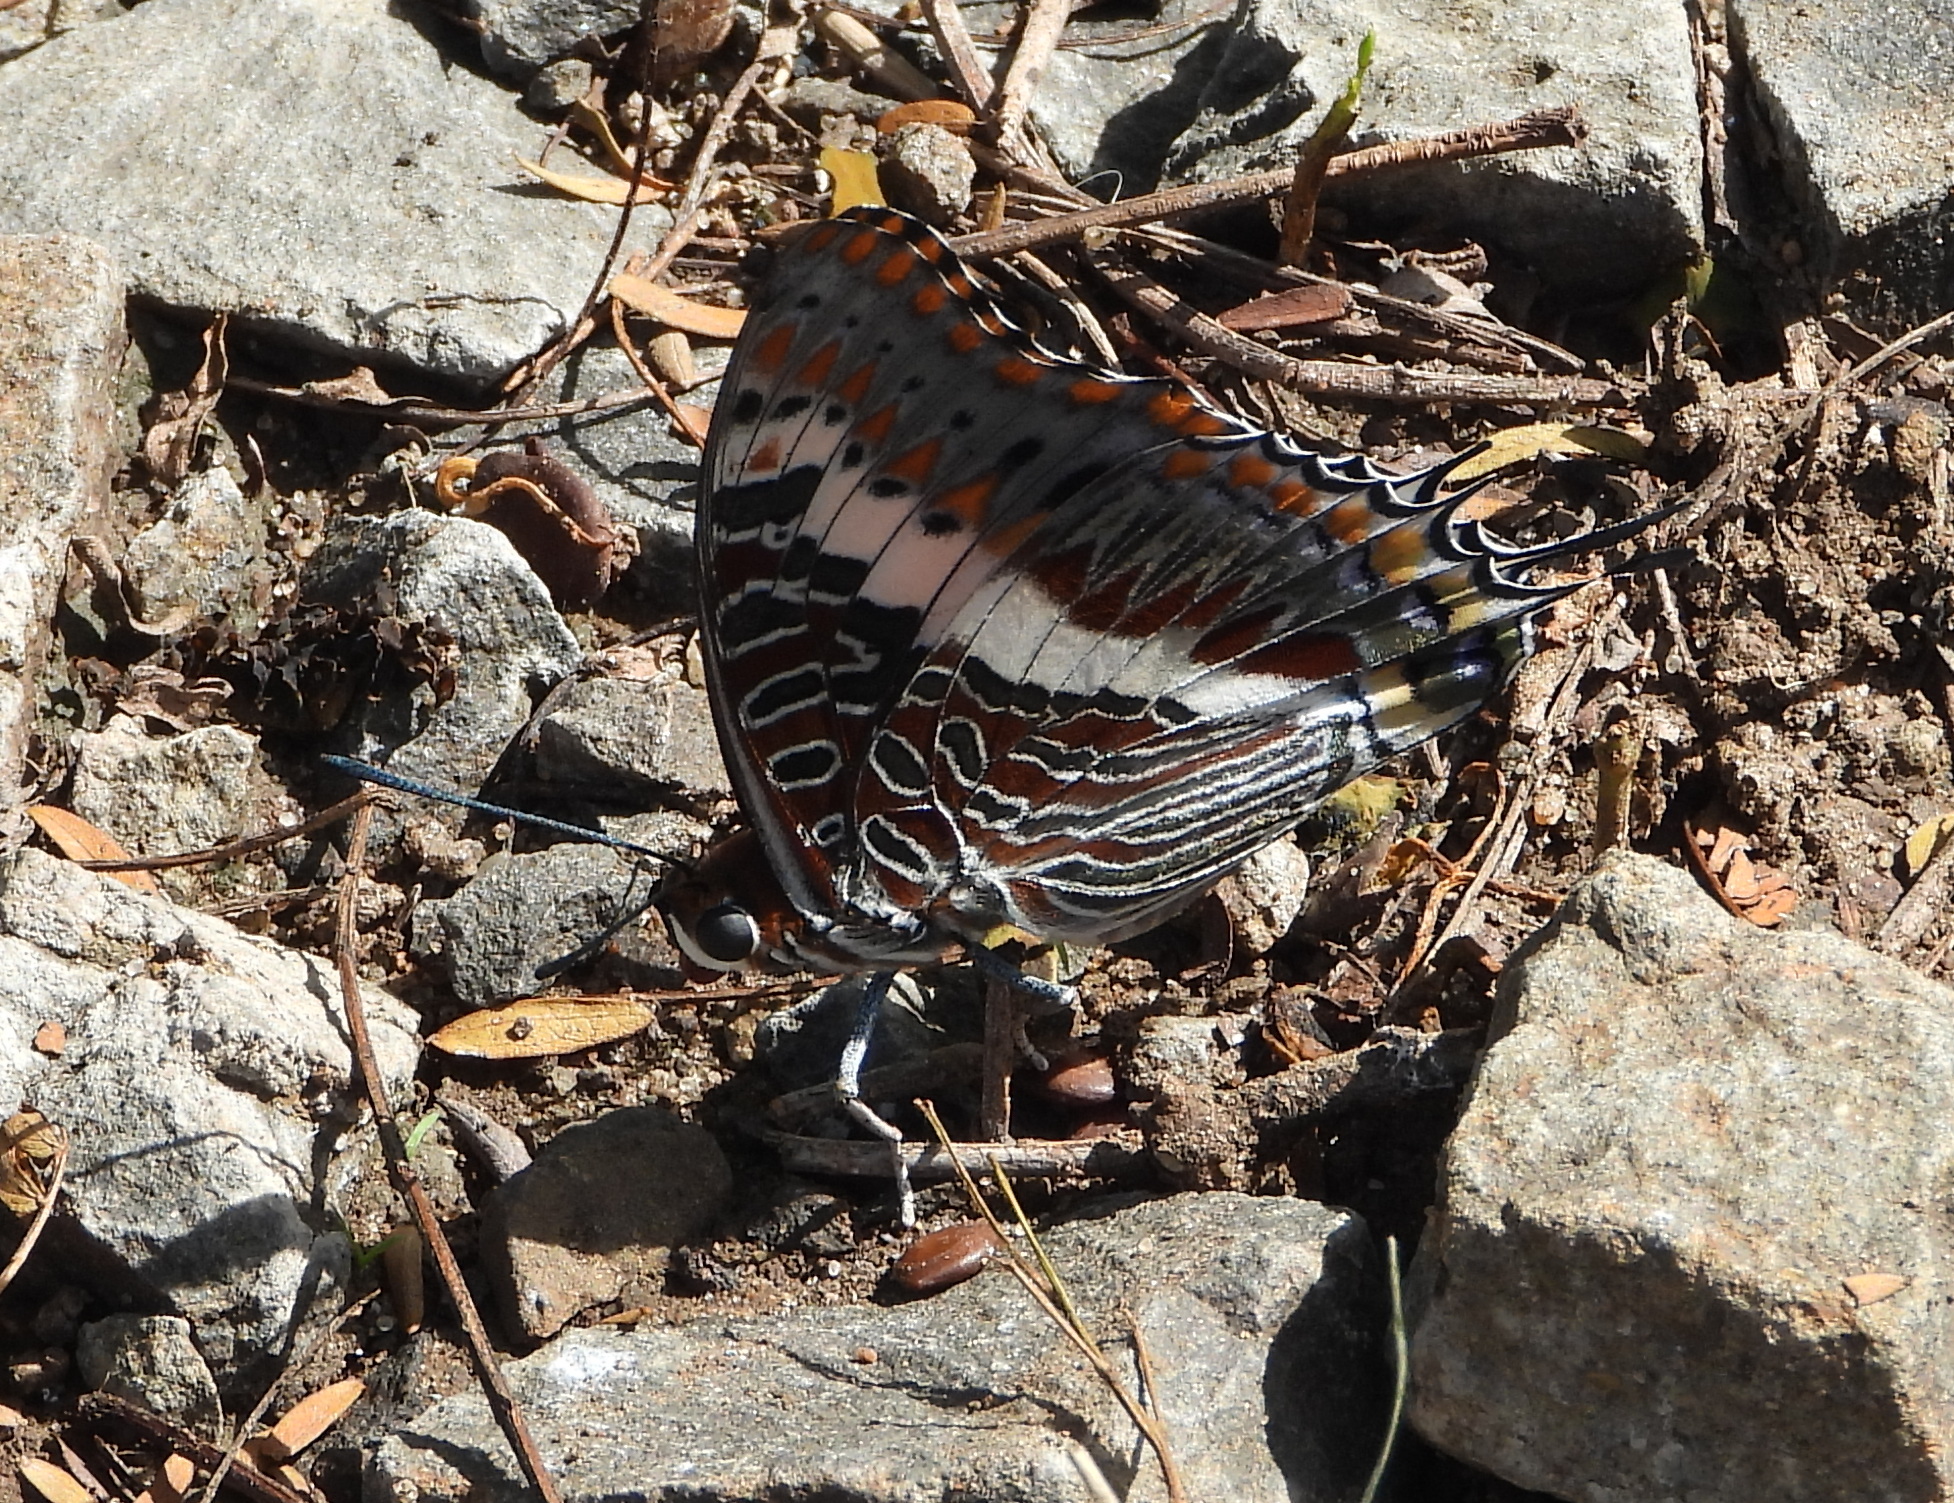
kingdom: Animalia
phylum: Arthropoda
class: Insecta
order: Lepidoptera
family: Nymphalidae
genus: Charaxes
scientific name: Charaxes jasius
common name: Two tailed pasha
